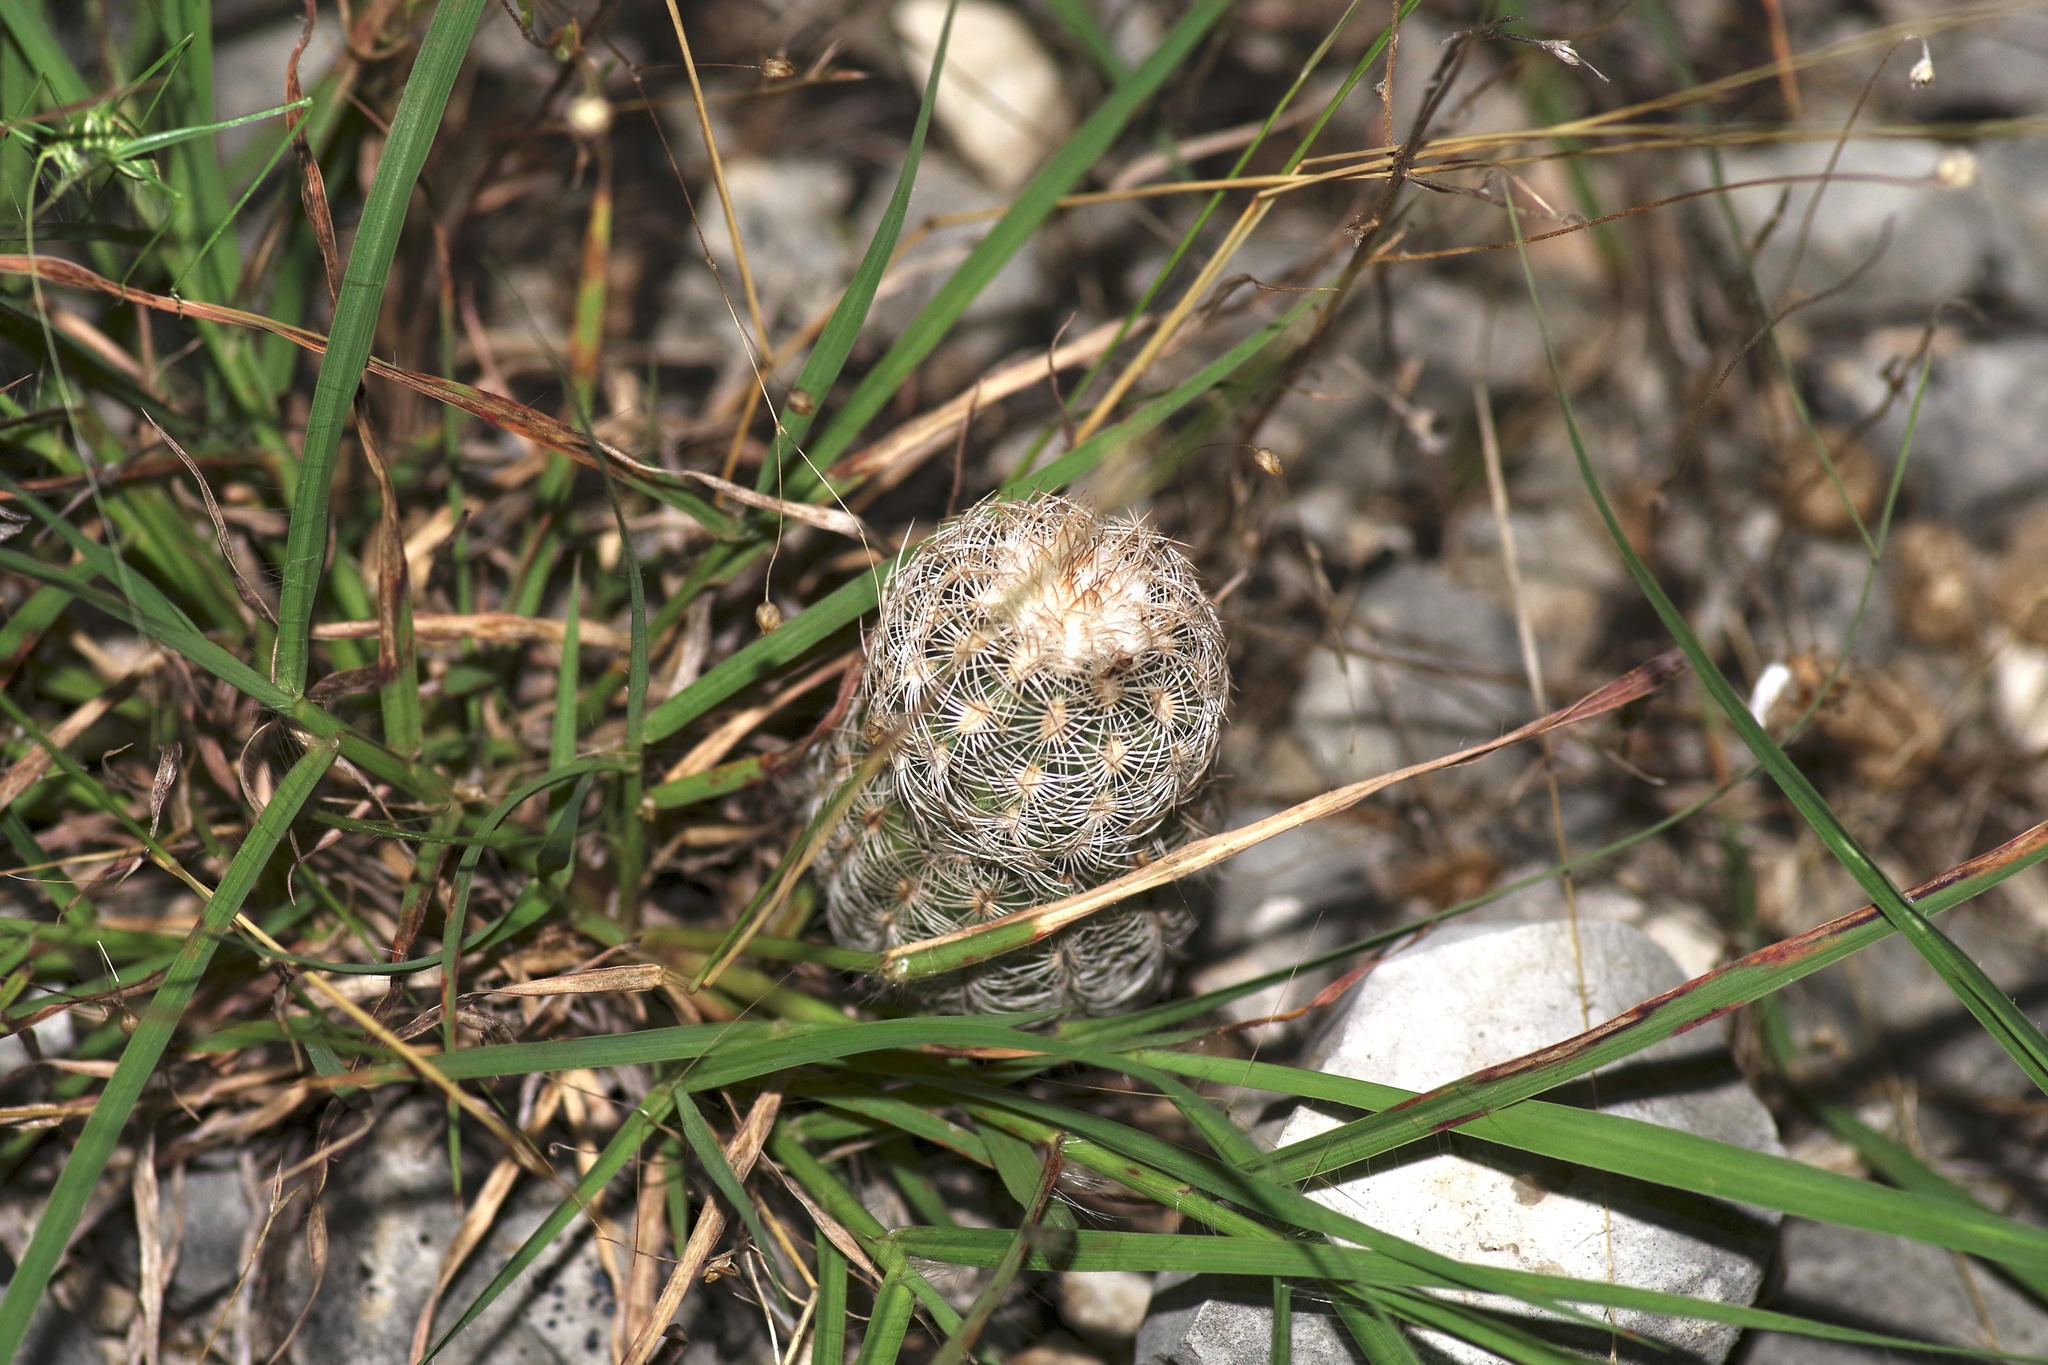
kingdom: Plantae
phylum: Tracheophyta
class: Magnoliopsida
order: Caryophyllales
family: Cactaceae
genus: Echinocereus
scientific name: Echinocereus reichenbachii
